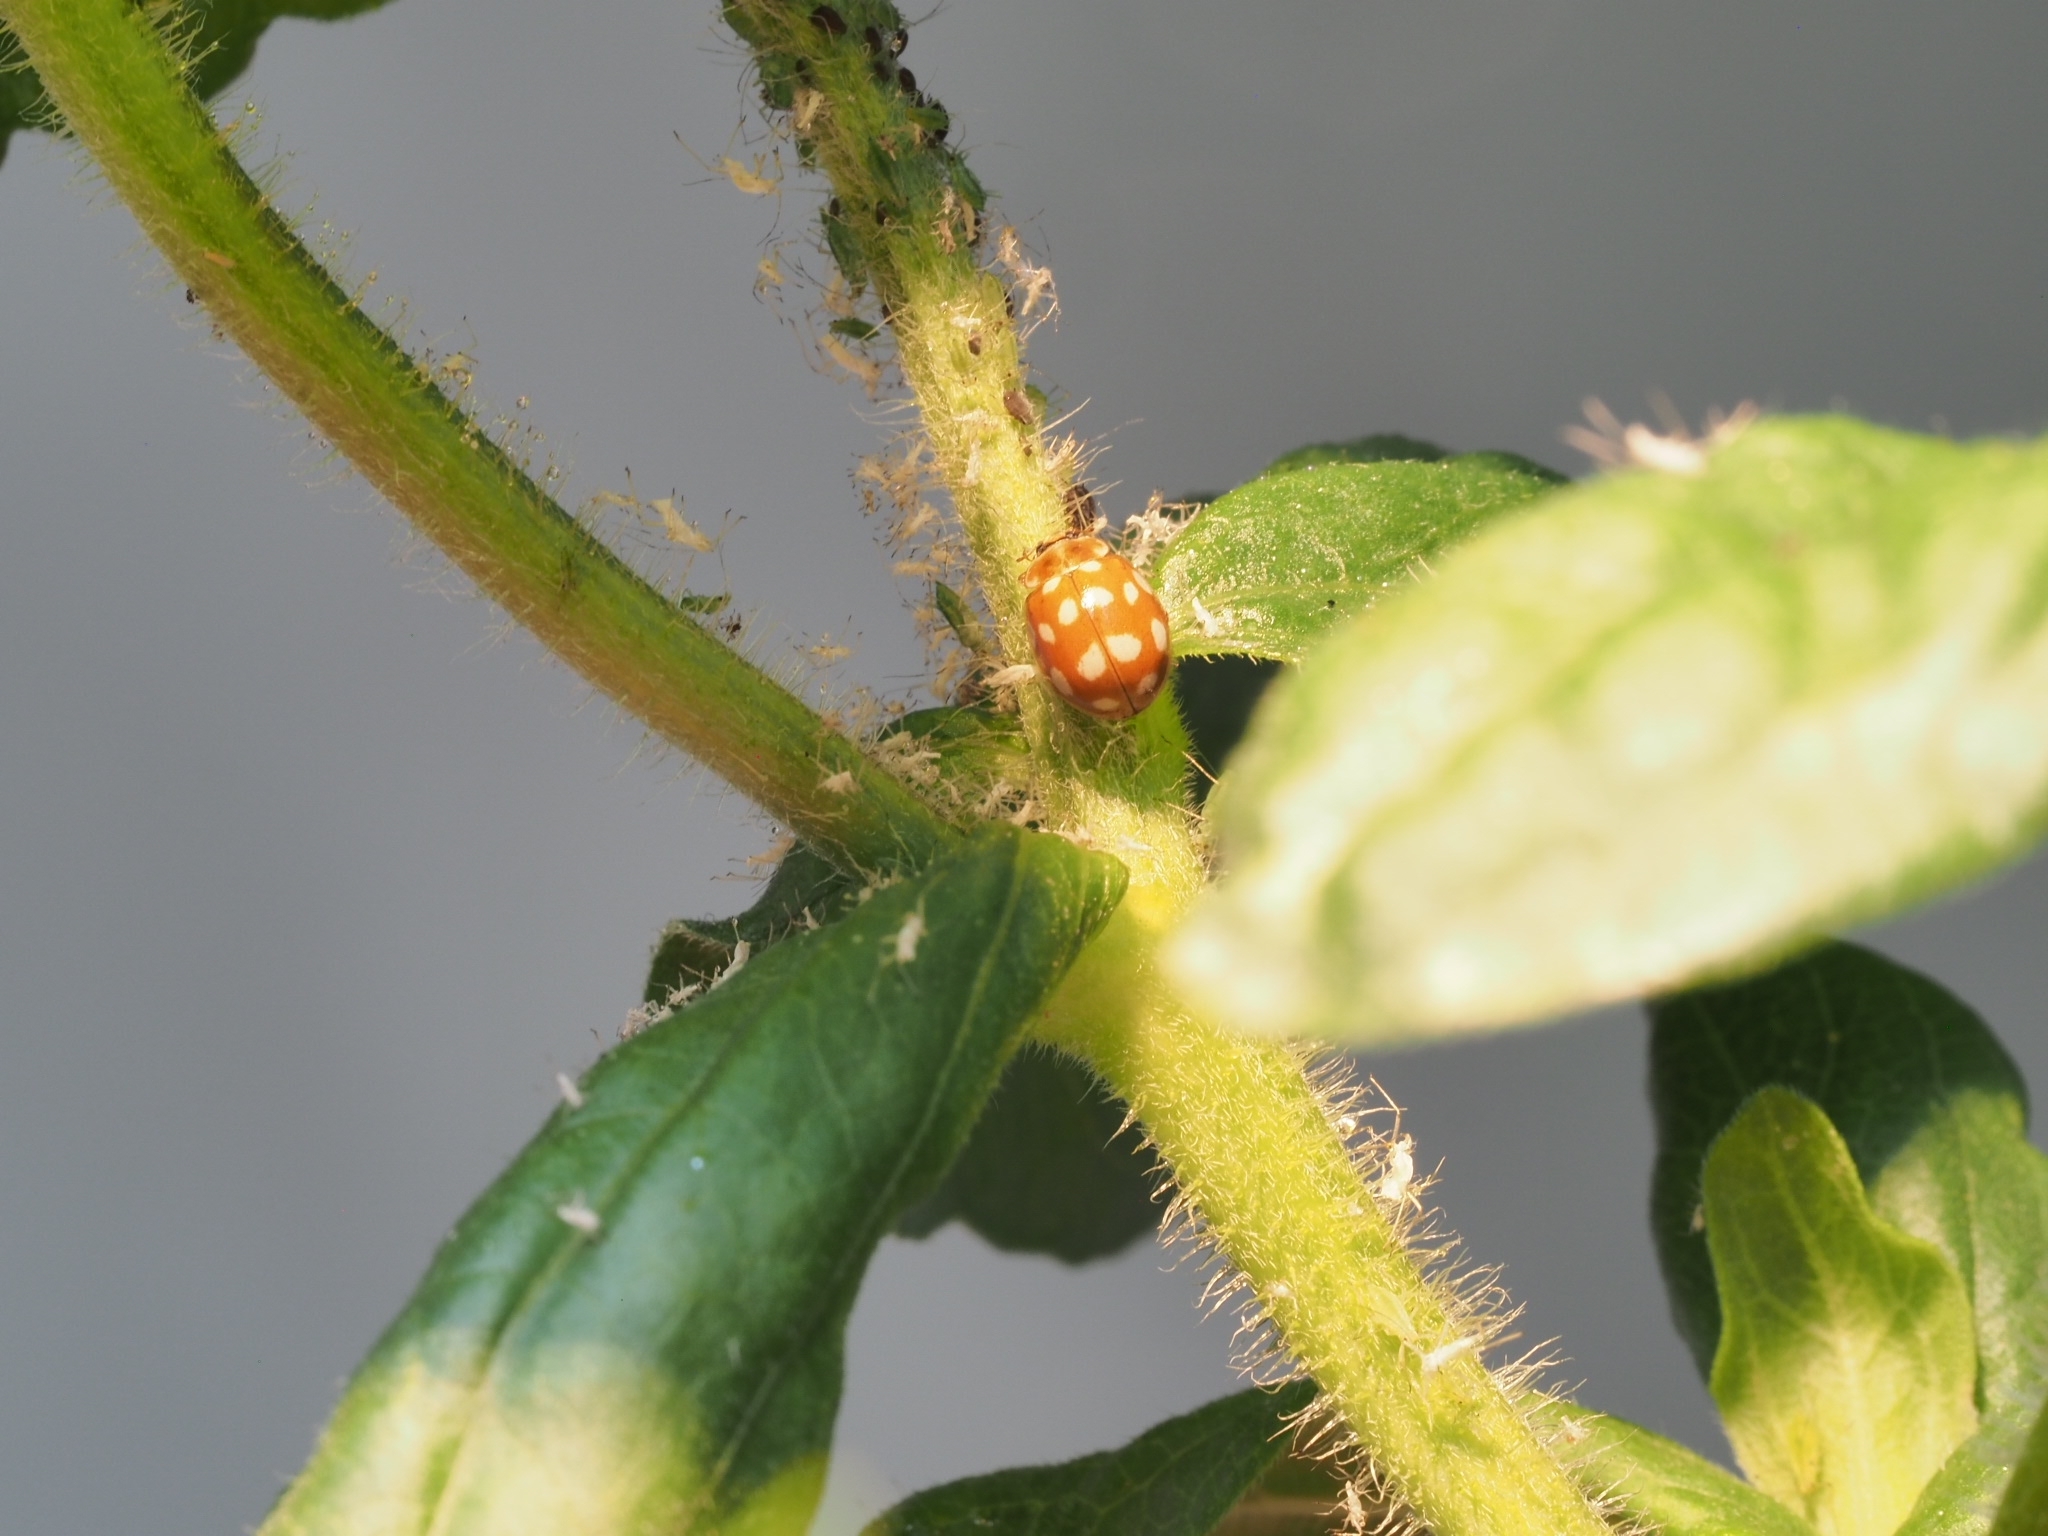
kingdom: Animalia
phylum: Arthropoda
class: Insecta
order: Coleoptera
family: Coccinellidae
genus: Calvia
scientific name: Calvia quatuordecimguttata
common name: Cream-spot ladybird
